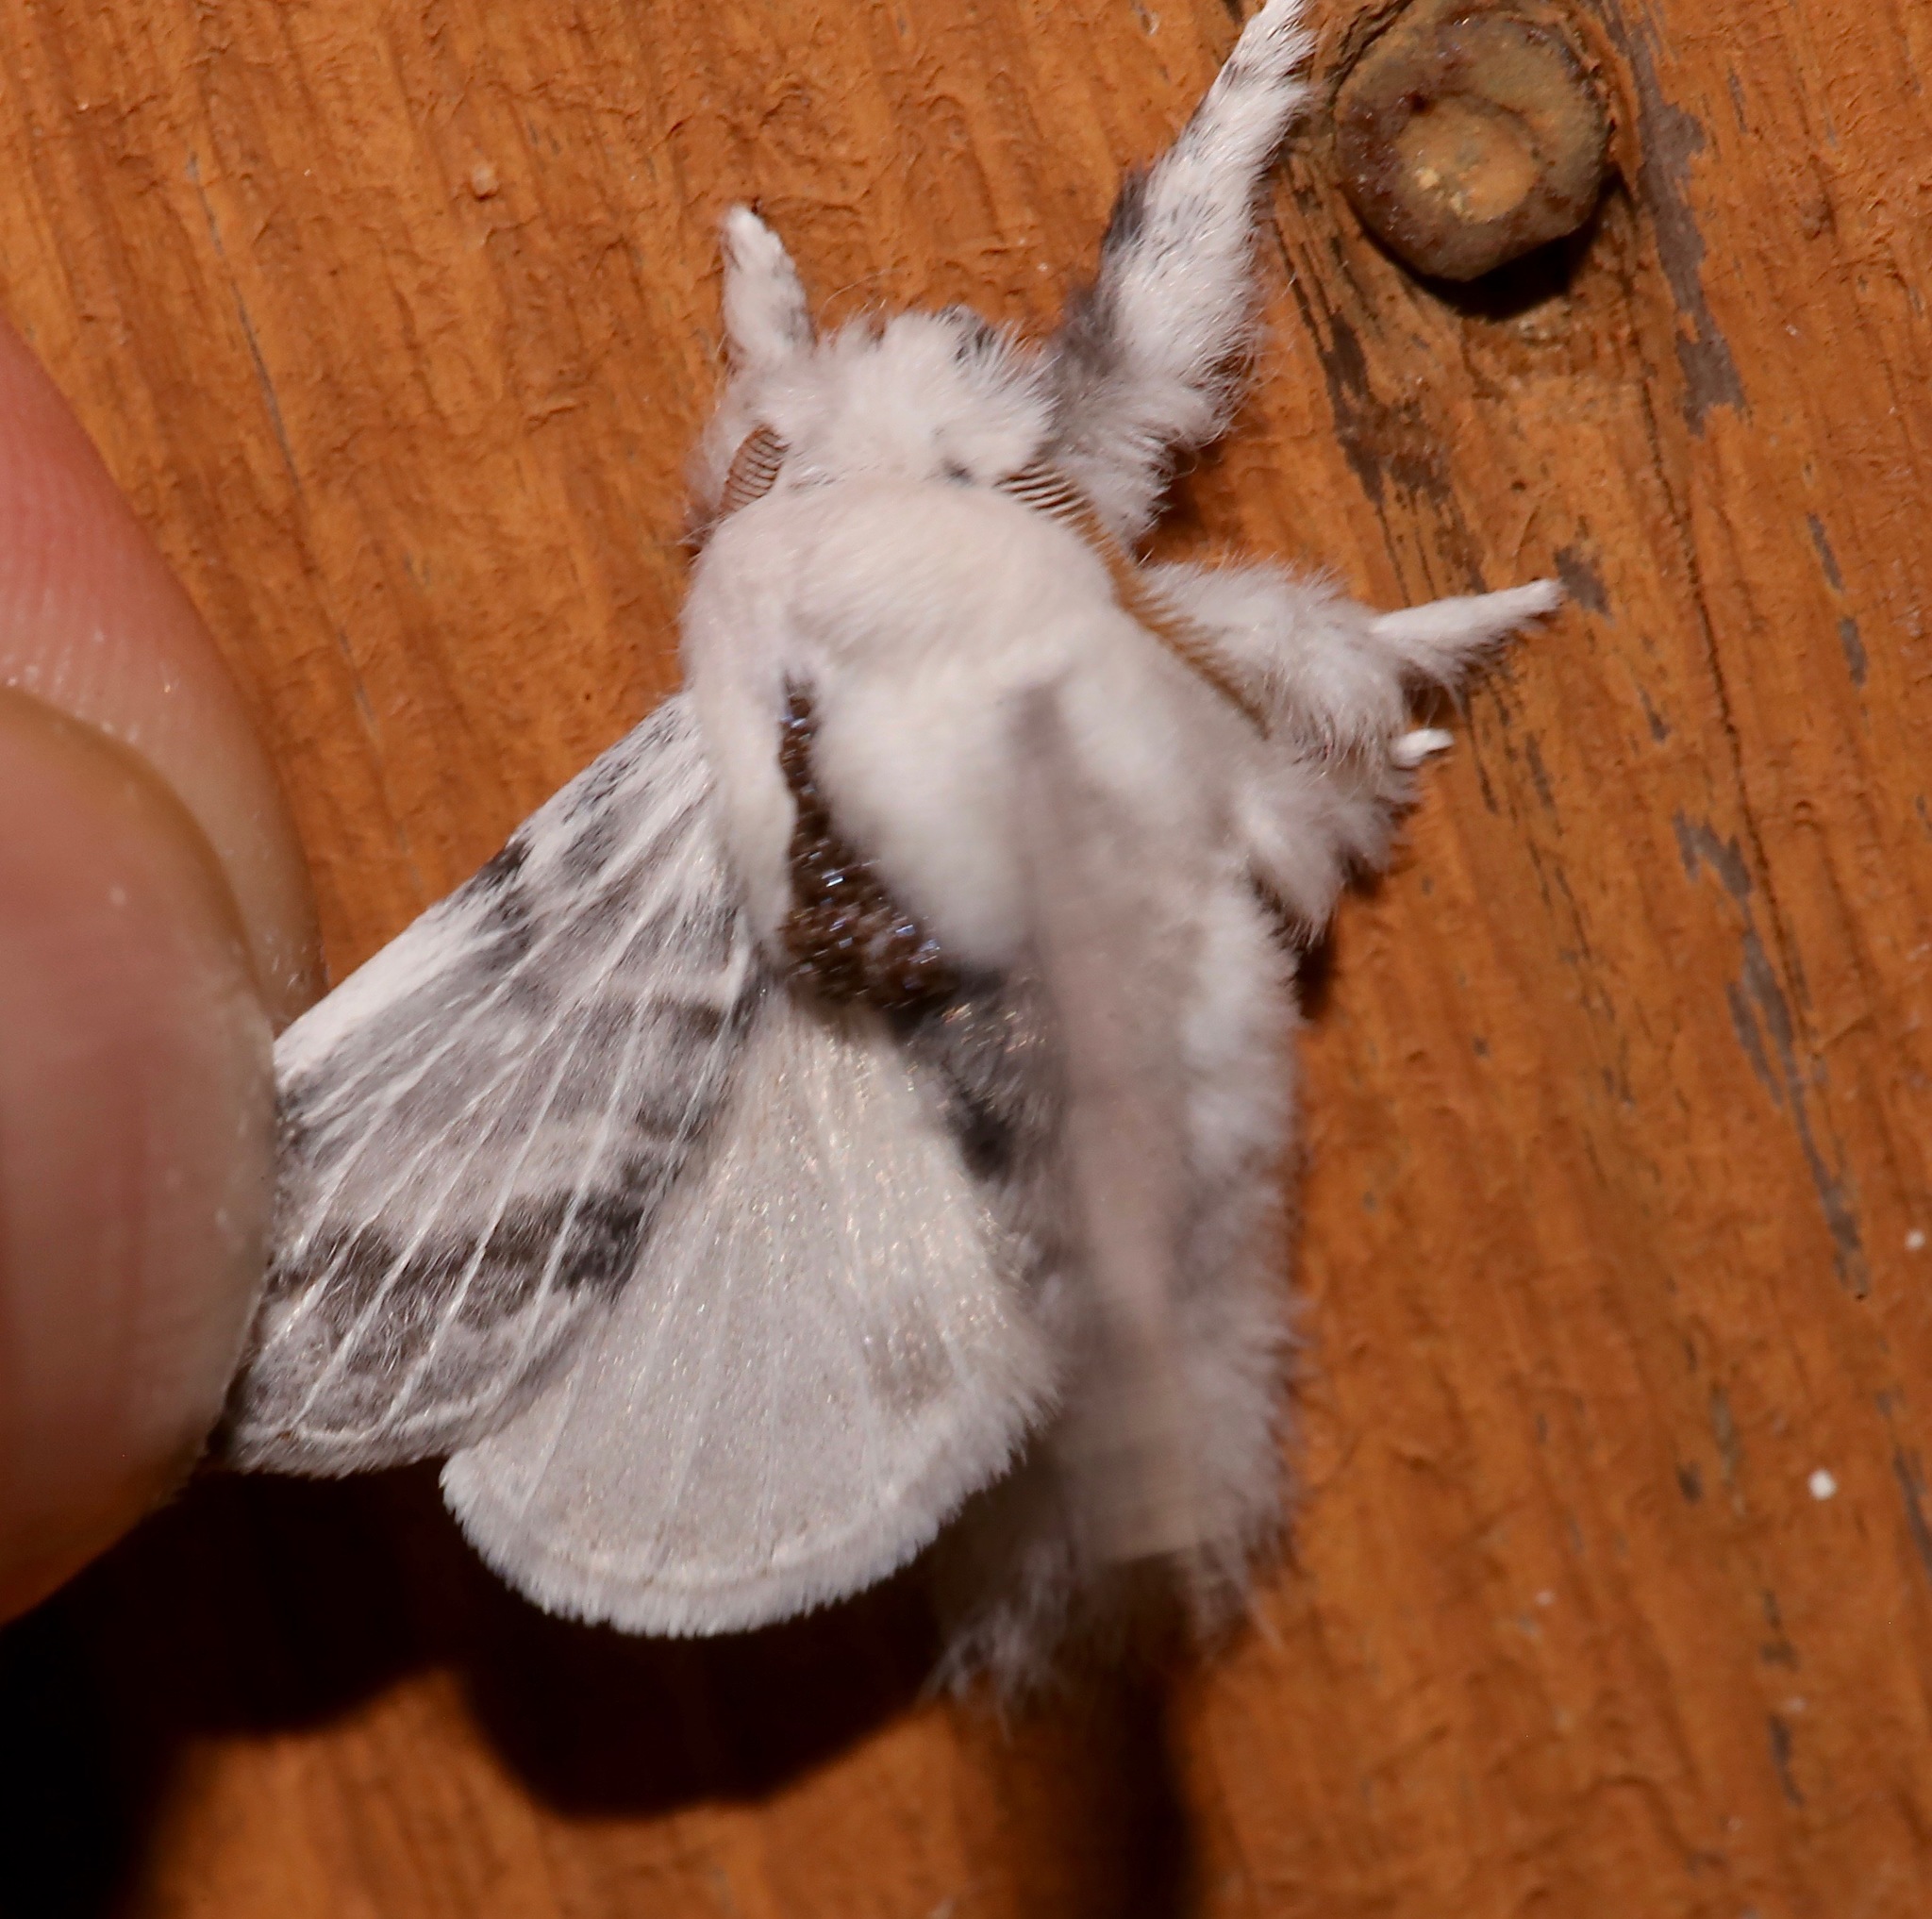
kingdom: Animalia
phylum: Arthropoda
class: Insecta
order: Lepidoptera
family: Lasiocampidae
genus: Tolype
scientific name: Tolype minta
